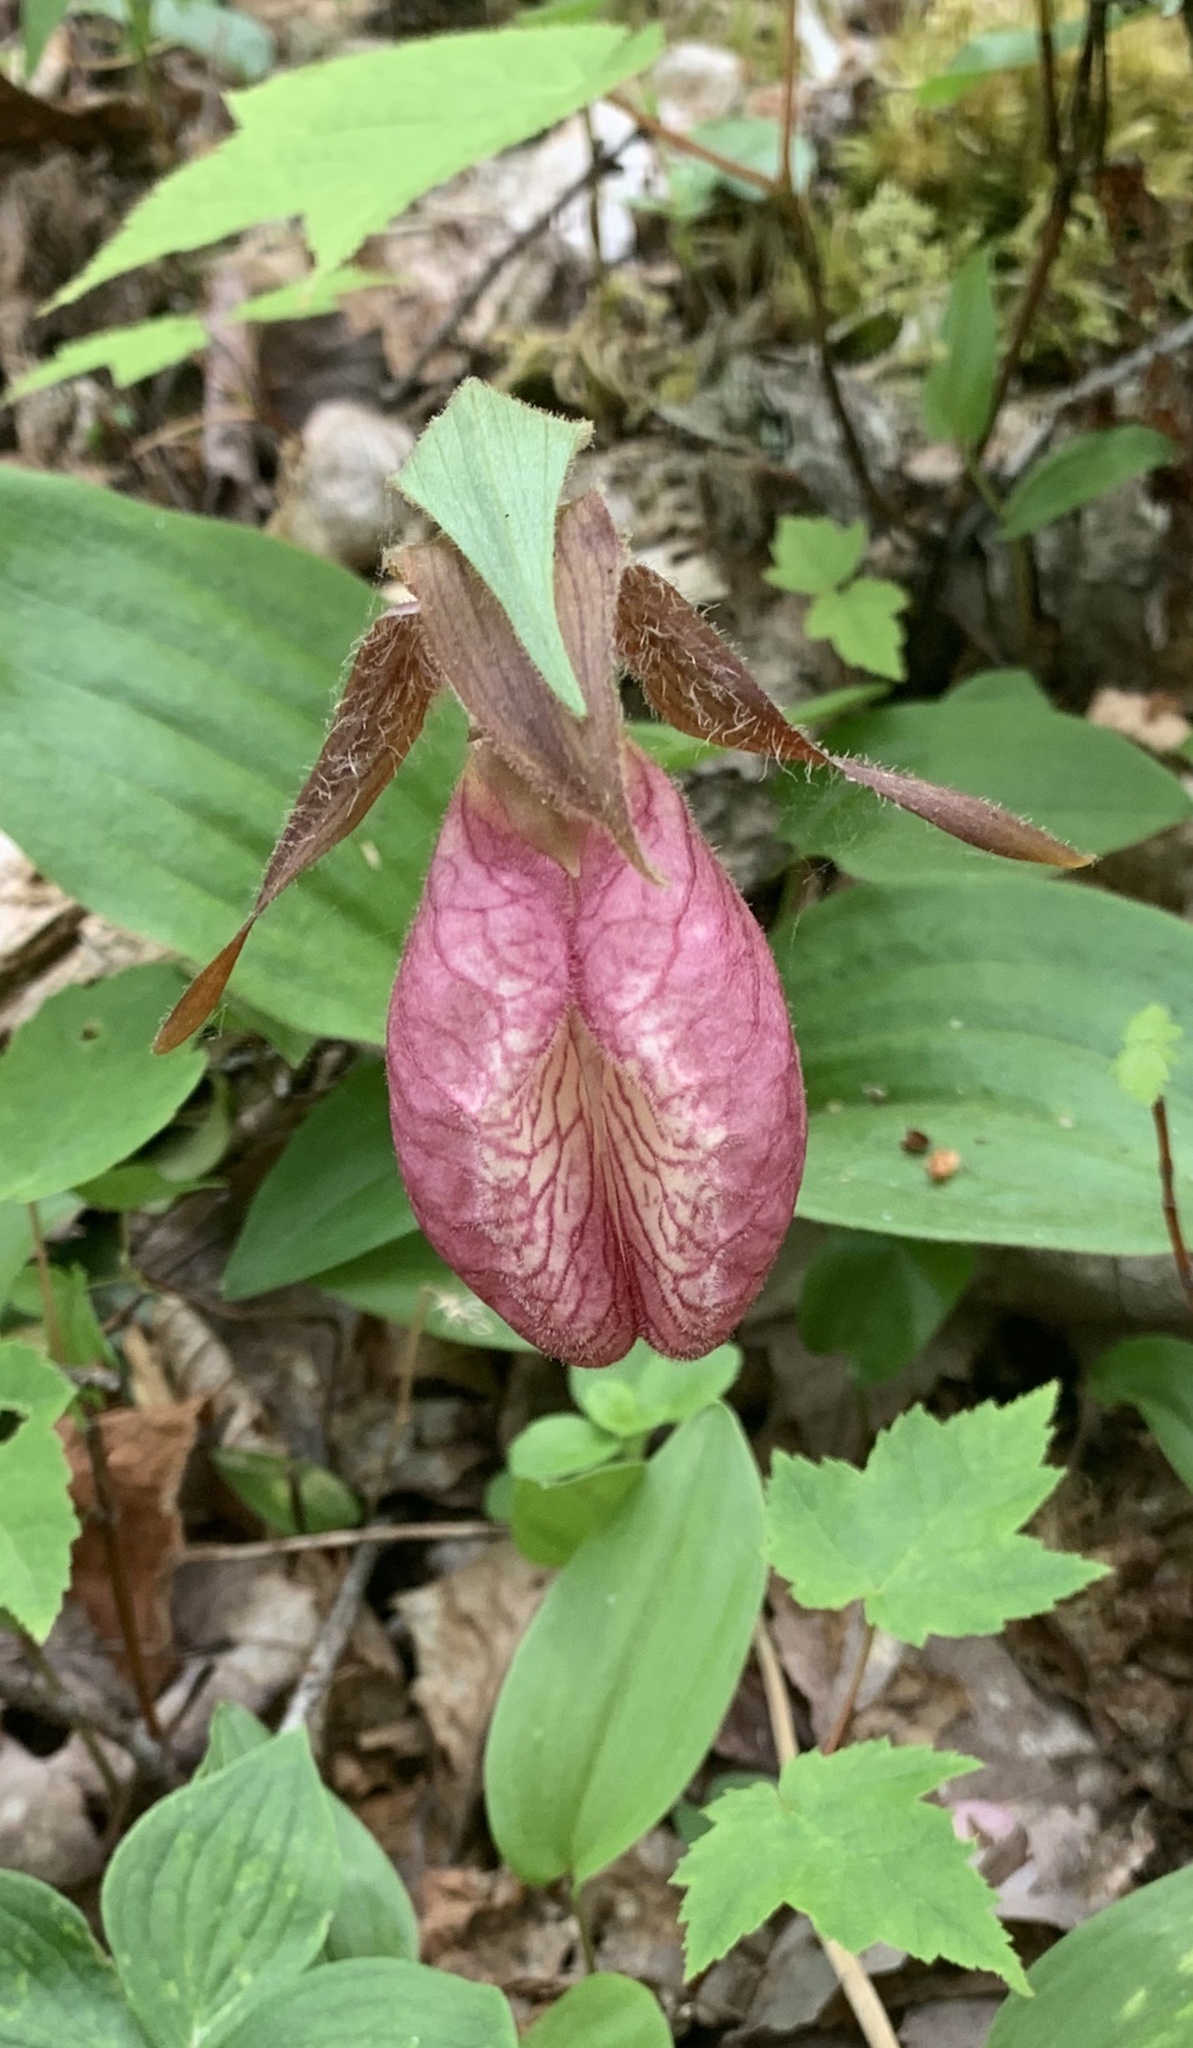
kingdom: Plantae
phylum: Tracheophyta
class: Liliopsida
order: Asparagales
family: Orchidaceae
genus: Cypripedium
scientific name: Cypripedium acaule
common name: Pink lady's-slipper
